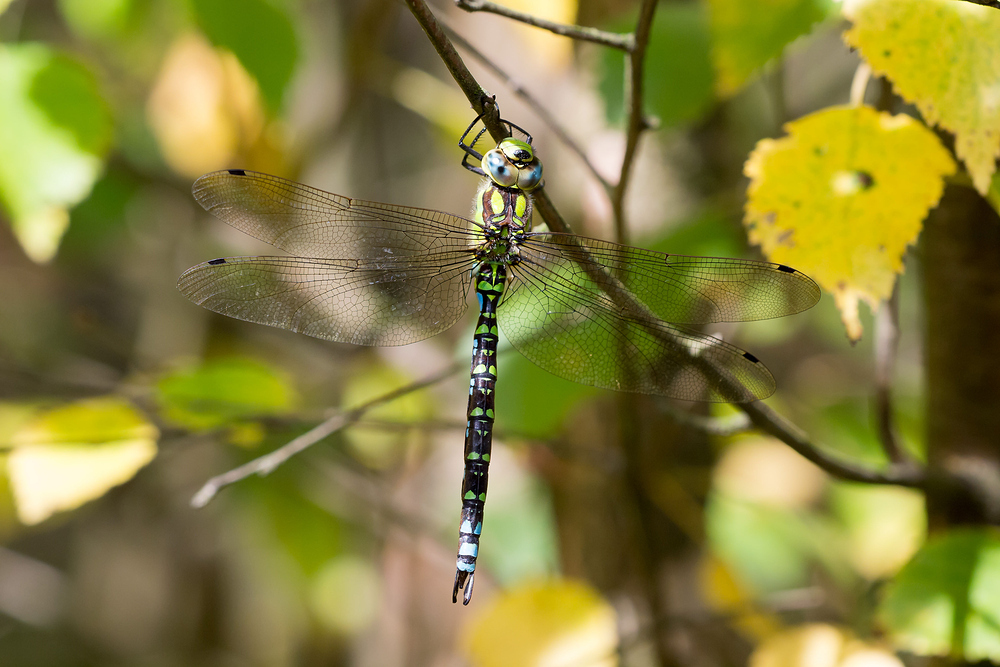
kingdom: Animalia
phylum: Arthropoda
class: Insecta
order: Odonata
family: Aeshnidae
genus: Aeshna
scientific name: Aeshna cyanea
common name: Southern hawker
